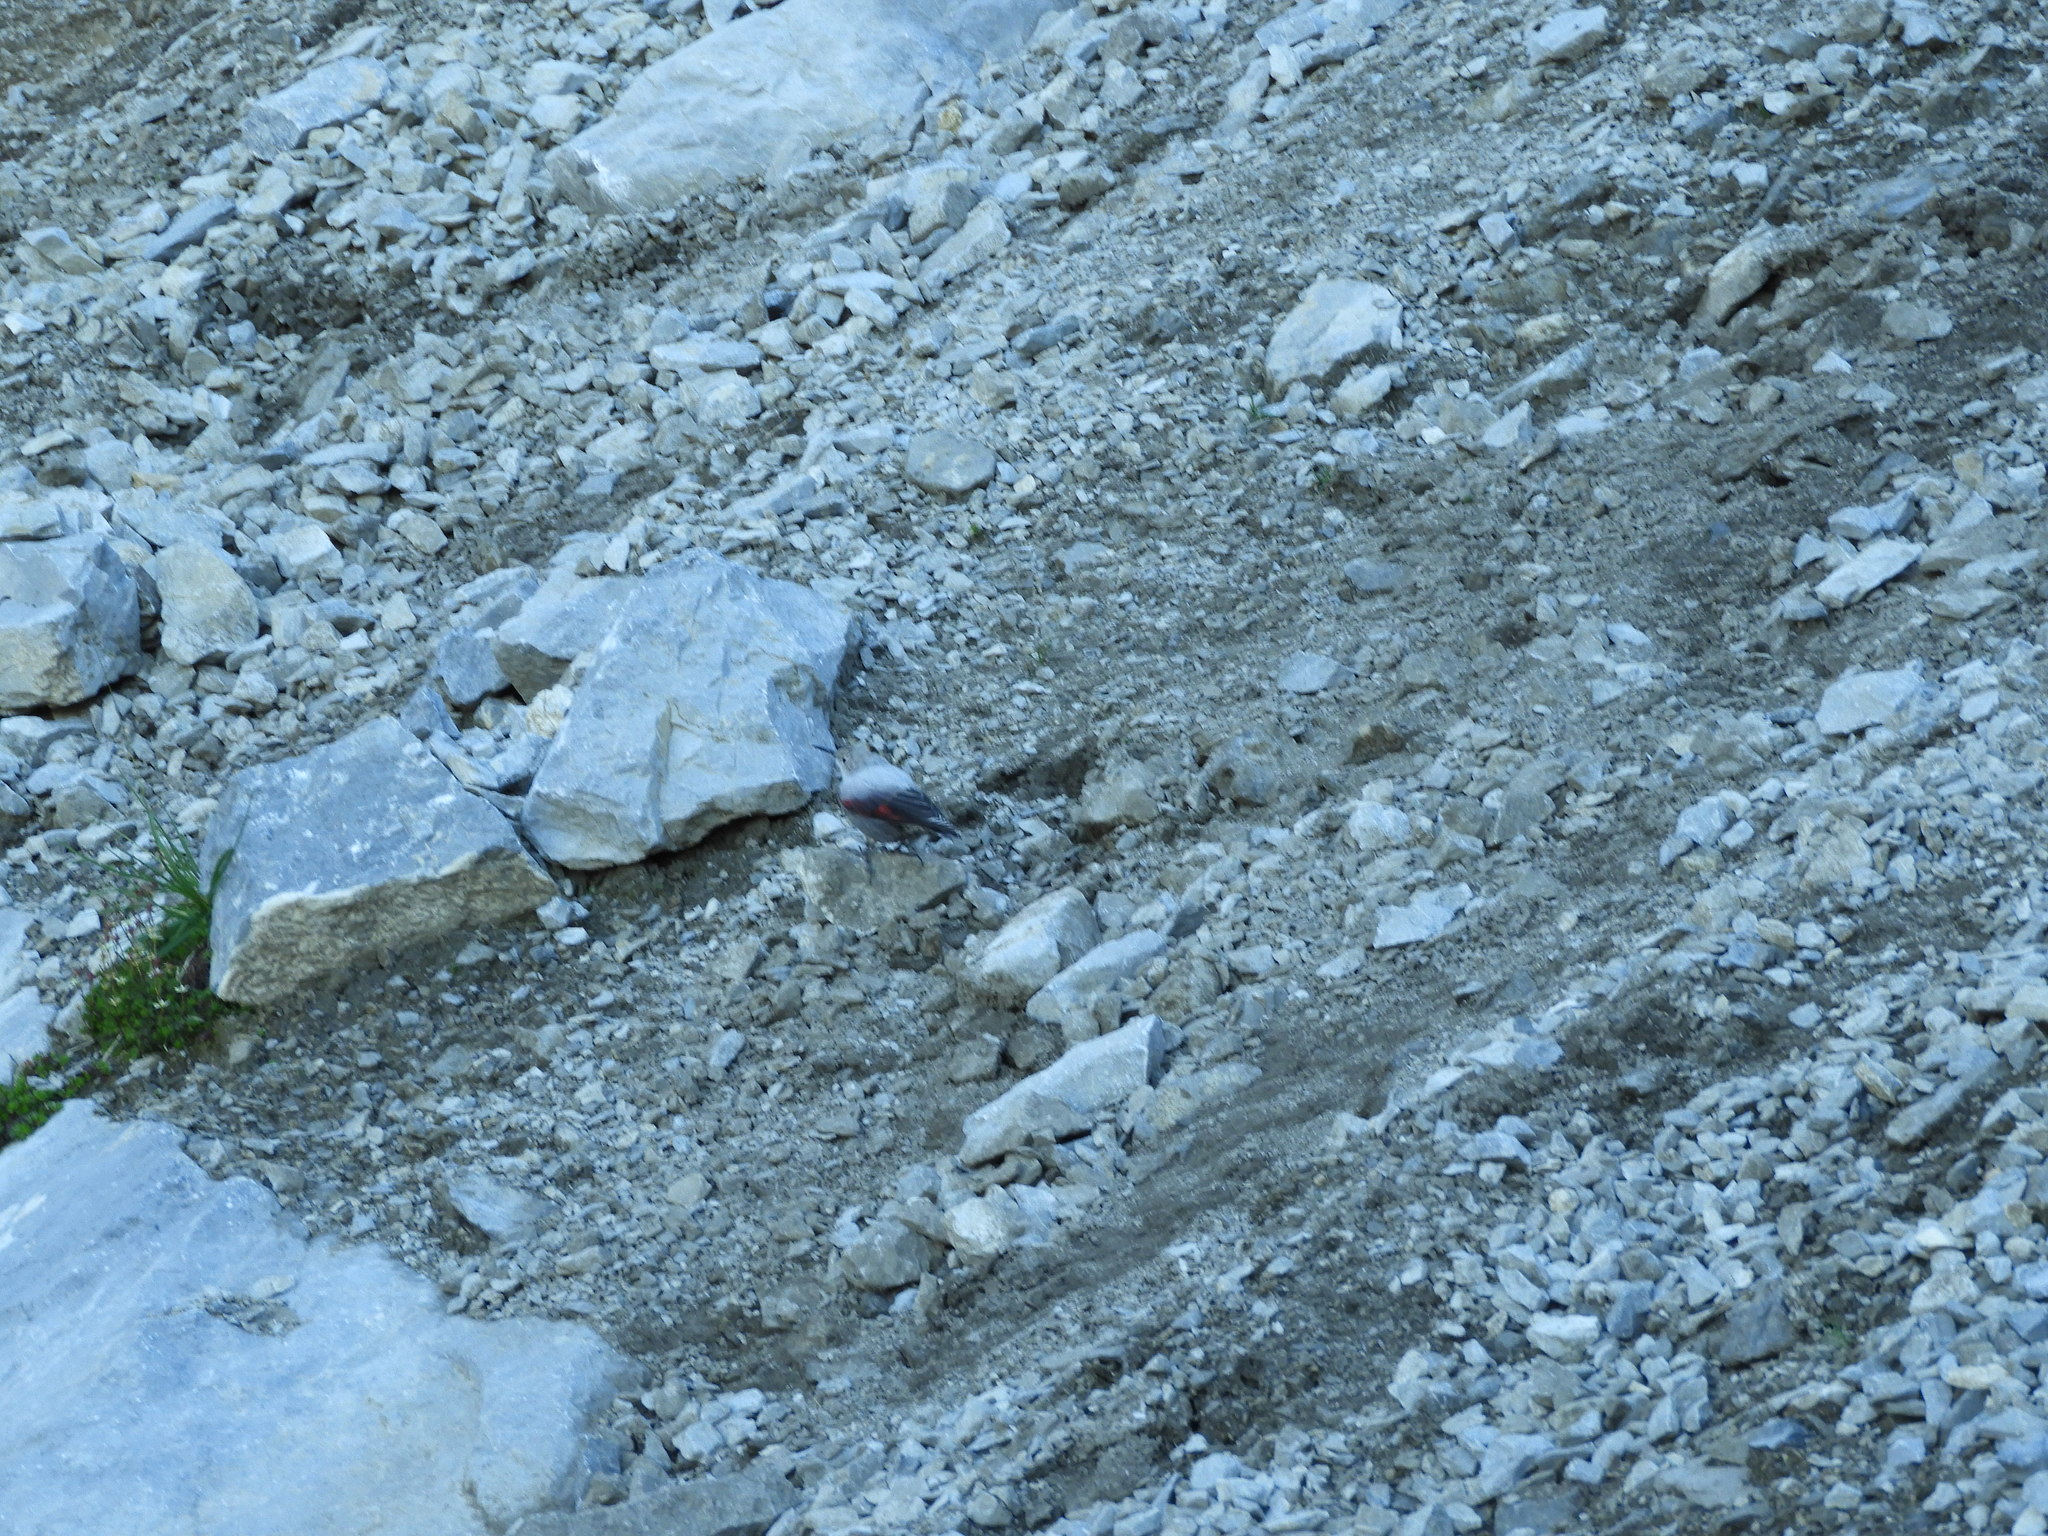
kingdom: Animalia
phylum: Chordata
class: Aves
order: Passeriformes
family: Tichodromidae
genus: Tichodroma
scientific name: Tichodroma muraria
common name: Wallcreeper
